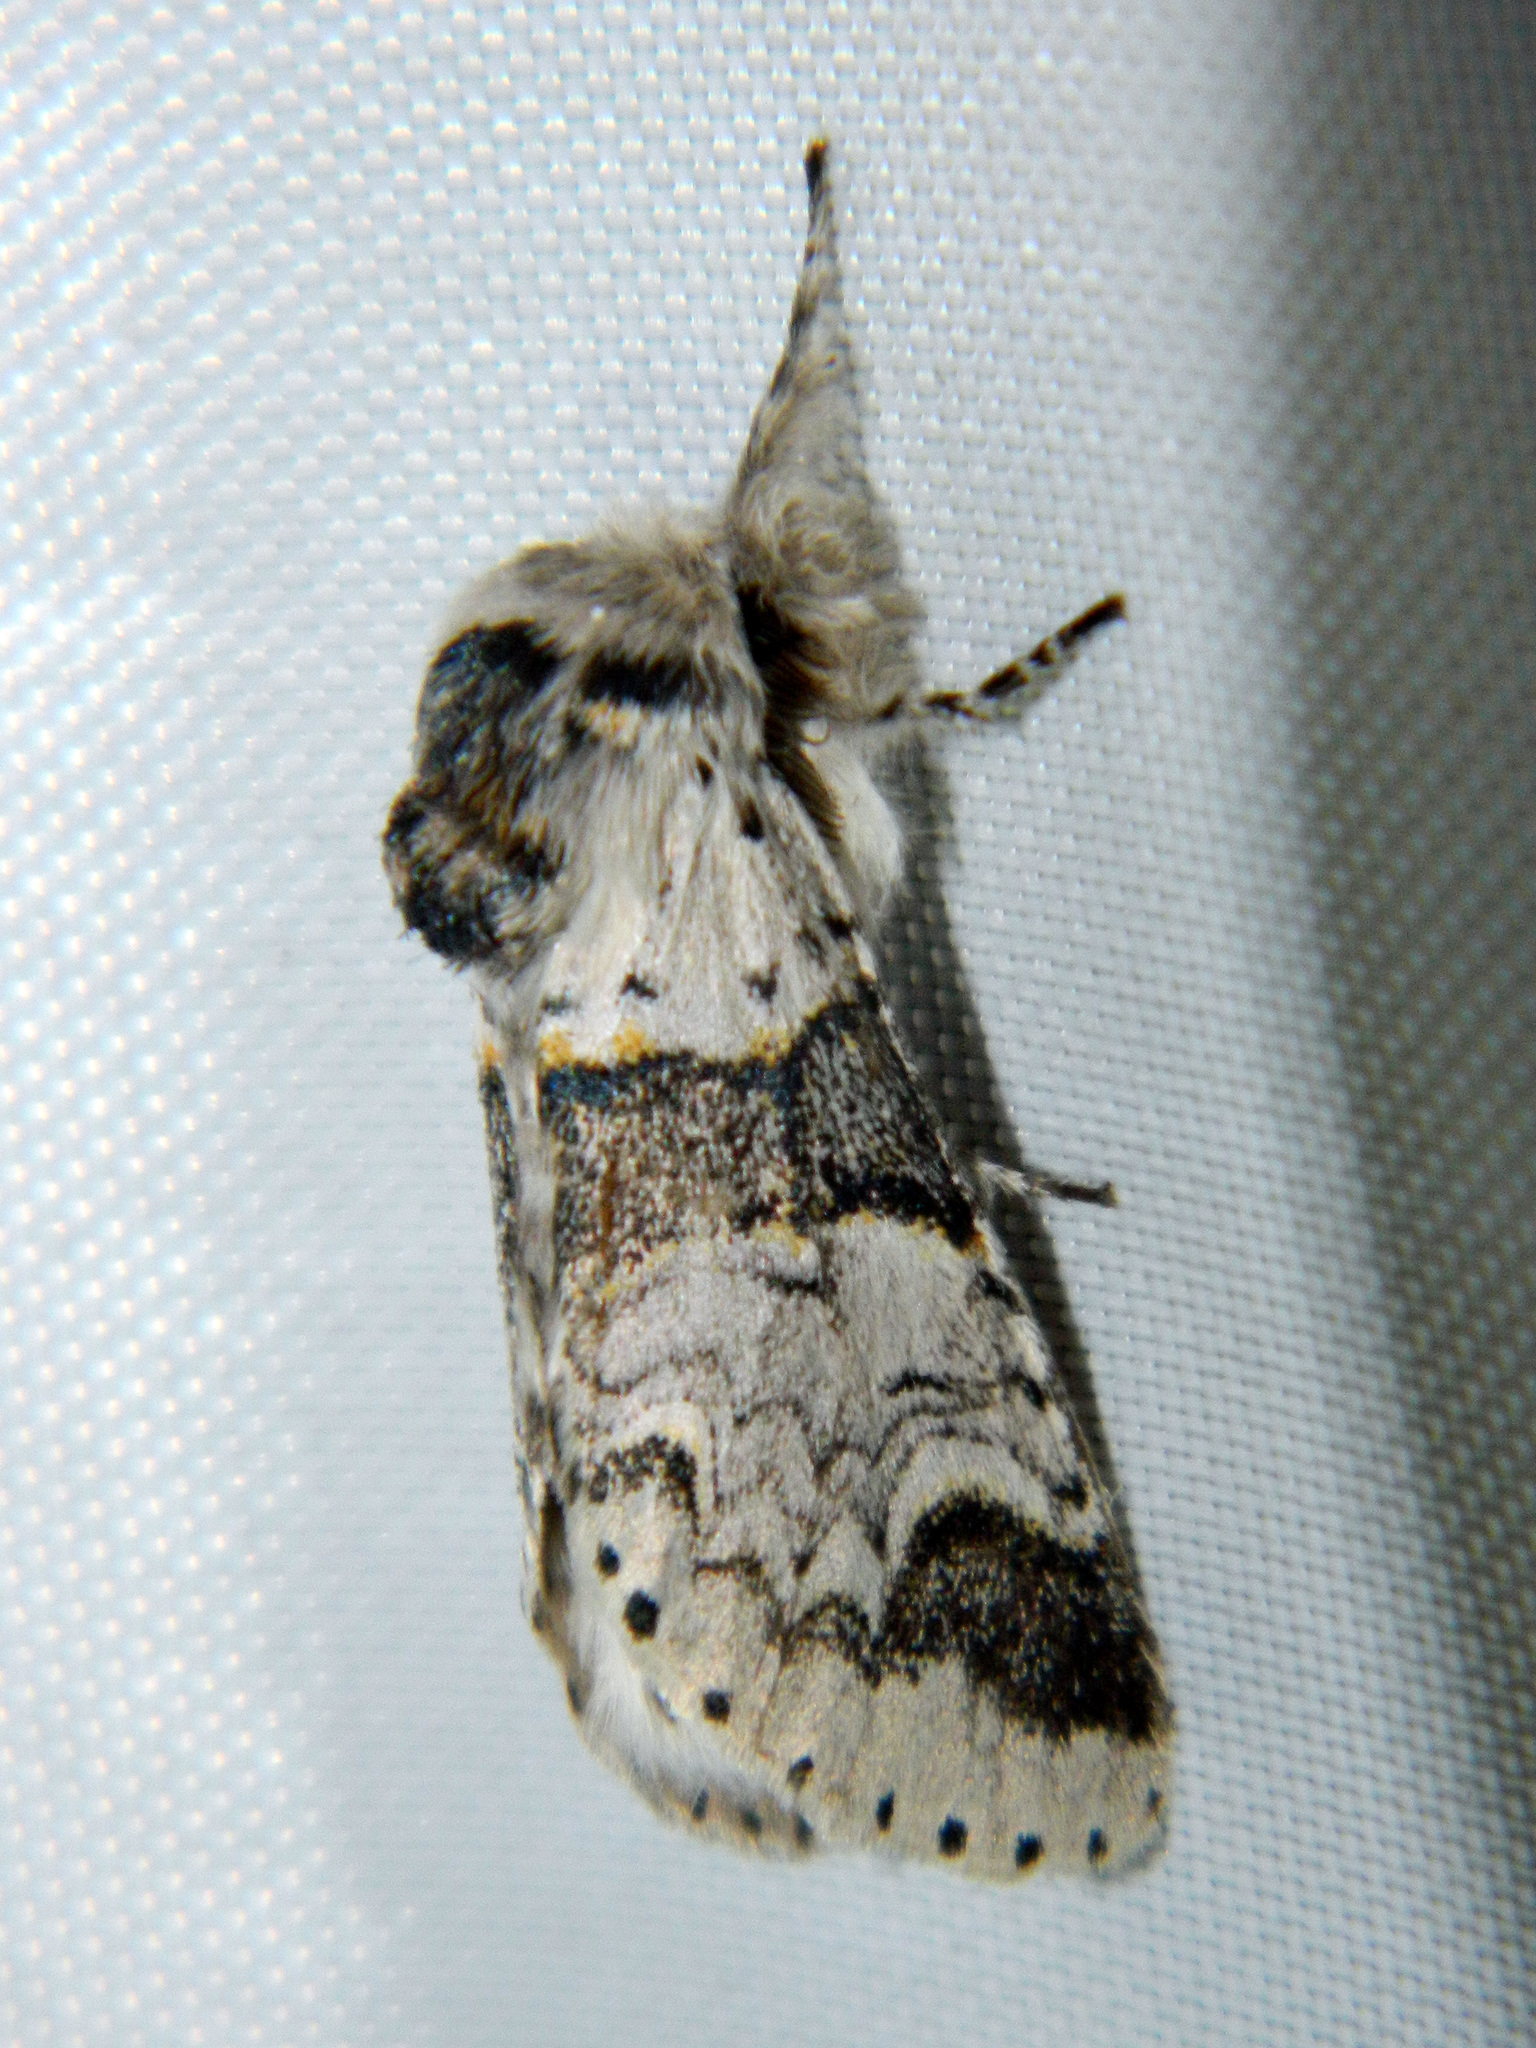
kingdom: Animalia
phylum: Arthropoda
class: Insecta
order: Lepidoptera
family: Notodontidae
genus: Furcula
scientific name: Furcula occidentalis
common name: Western furcula moth
